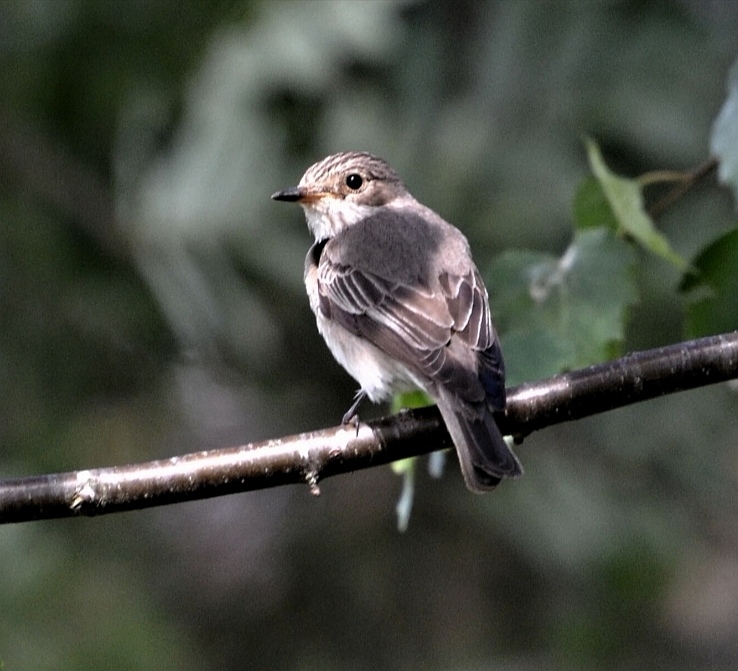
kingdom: Animalia
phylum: Chordata
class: Aves
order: Passeriformes
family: Muscicapidae
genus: Muscicapa
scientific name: Muscicapa striata
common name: Spotted flycatcher
